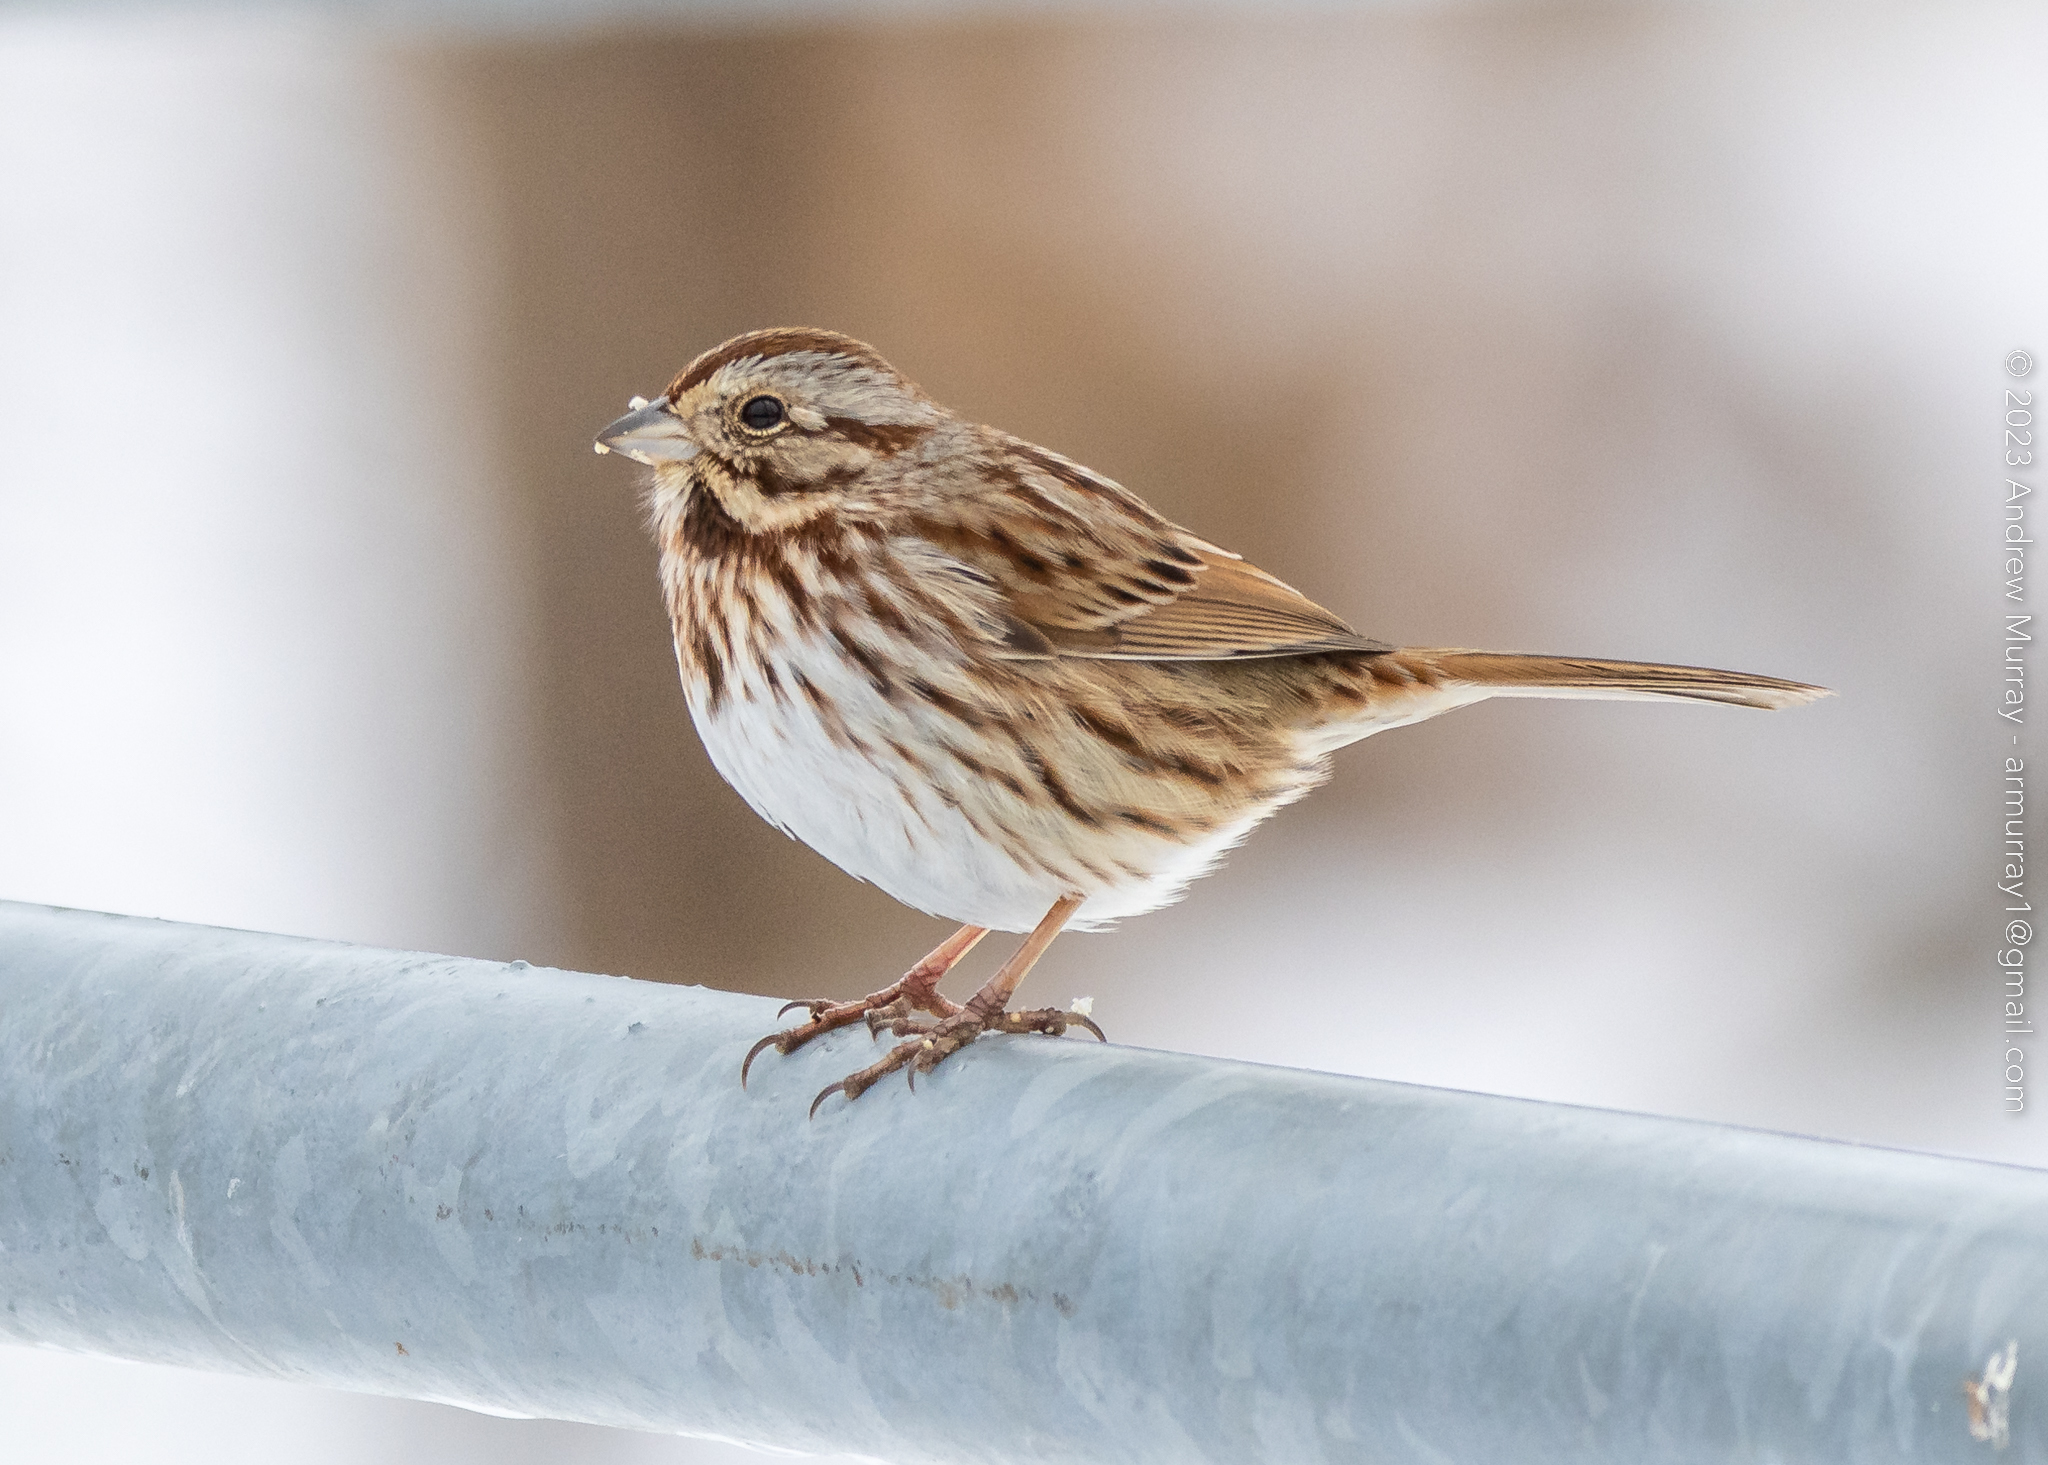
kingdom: Animalia
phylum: Chordata
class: Aves
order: Passeriformes
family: Passerellidae
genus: Melospiza
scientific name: Melospiza melodia
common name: Song sparrow
